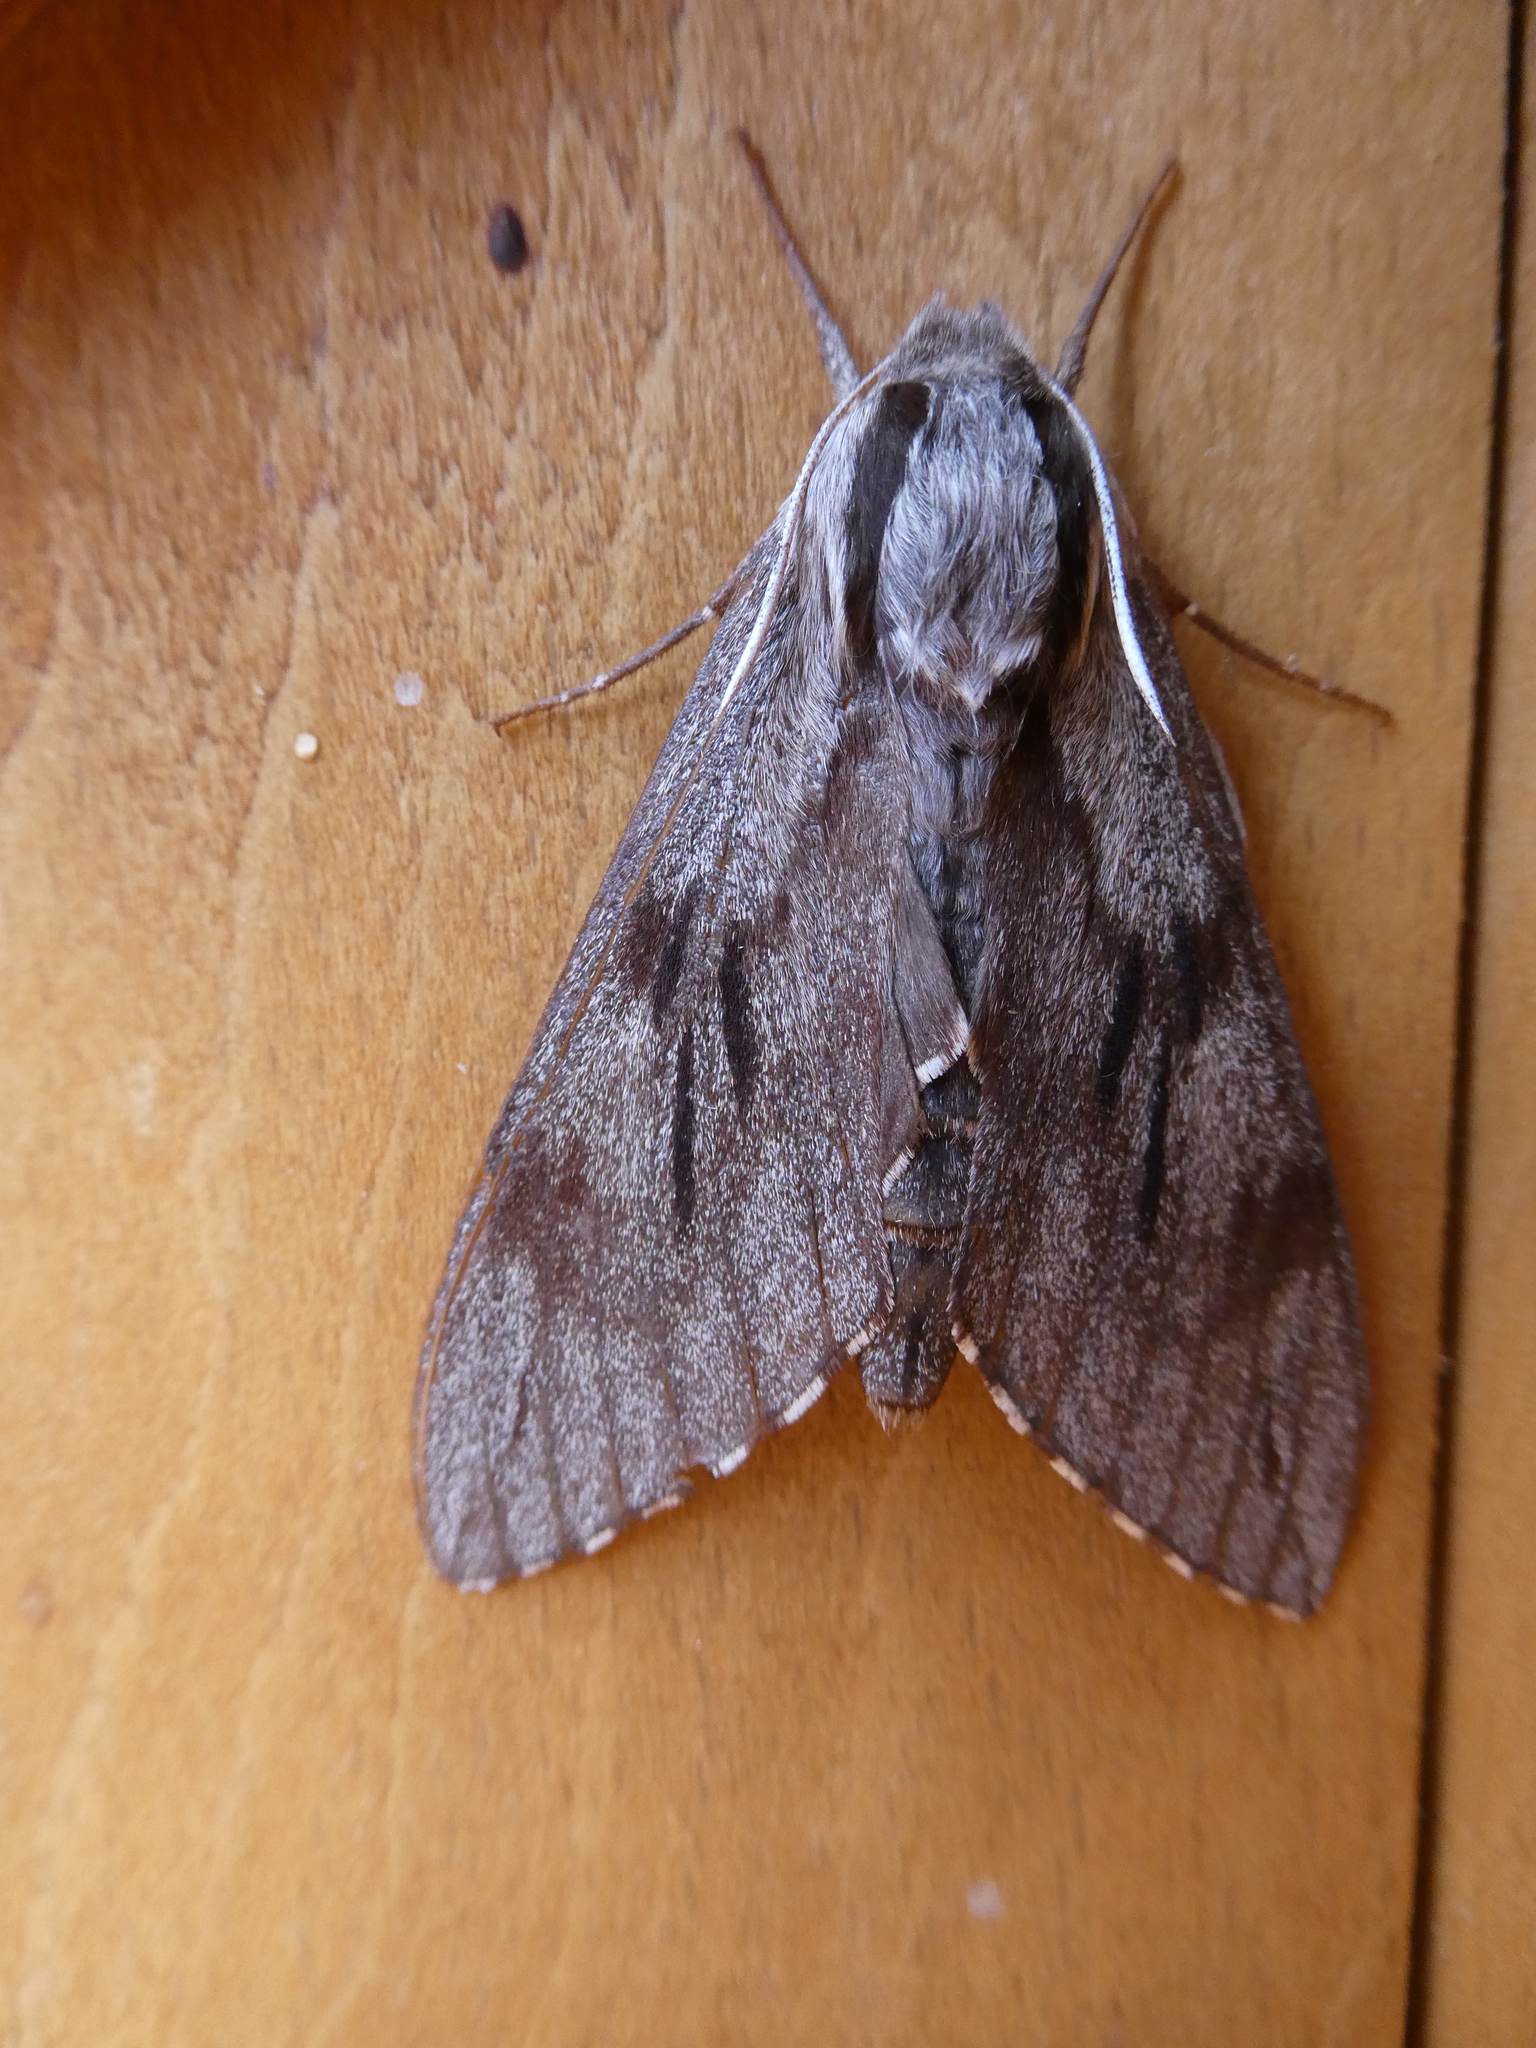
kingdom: Animalia
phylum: Arthropoda
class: Insecta
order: Lepidoptera
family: Sphingidae
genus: Sphinx
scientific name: Sphinx pinastri
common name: Pine hawk-moth
